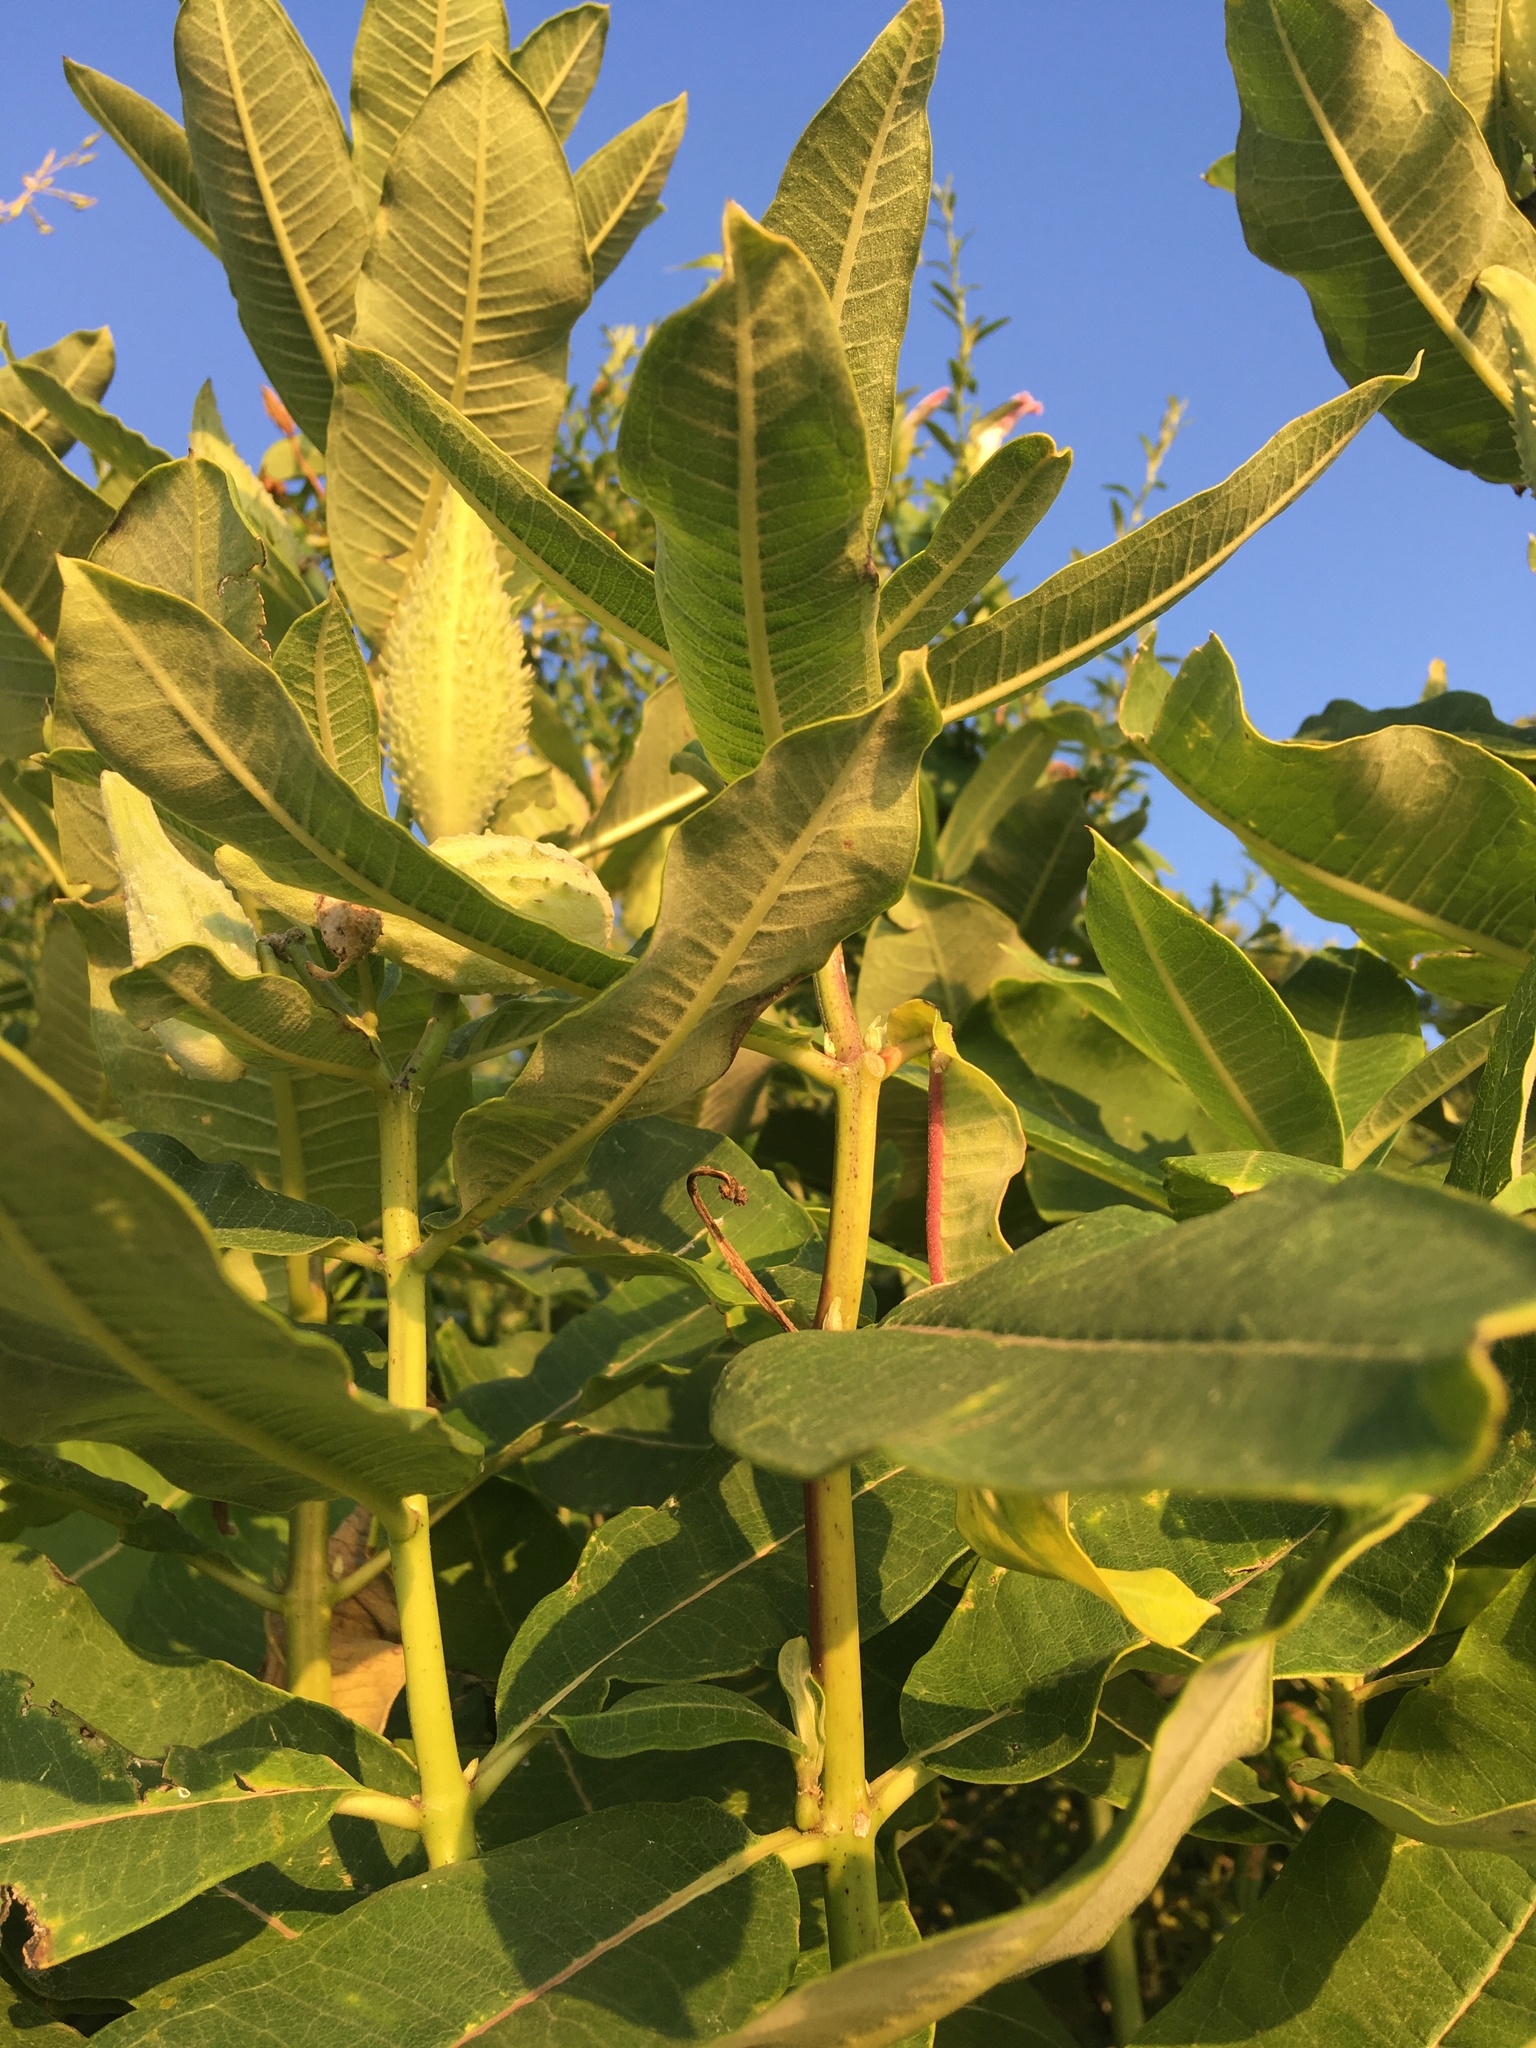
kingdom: Plantae
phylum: Tracheophyta
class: Magnoliopsida
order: Gentianales
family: Apocynaceae
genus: Asclepias
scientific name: Asclepias syriaca
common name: Common milkweed
